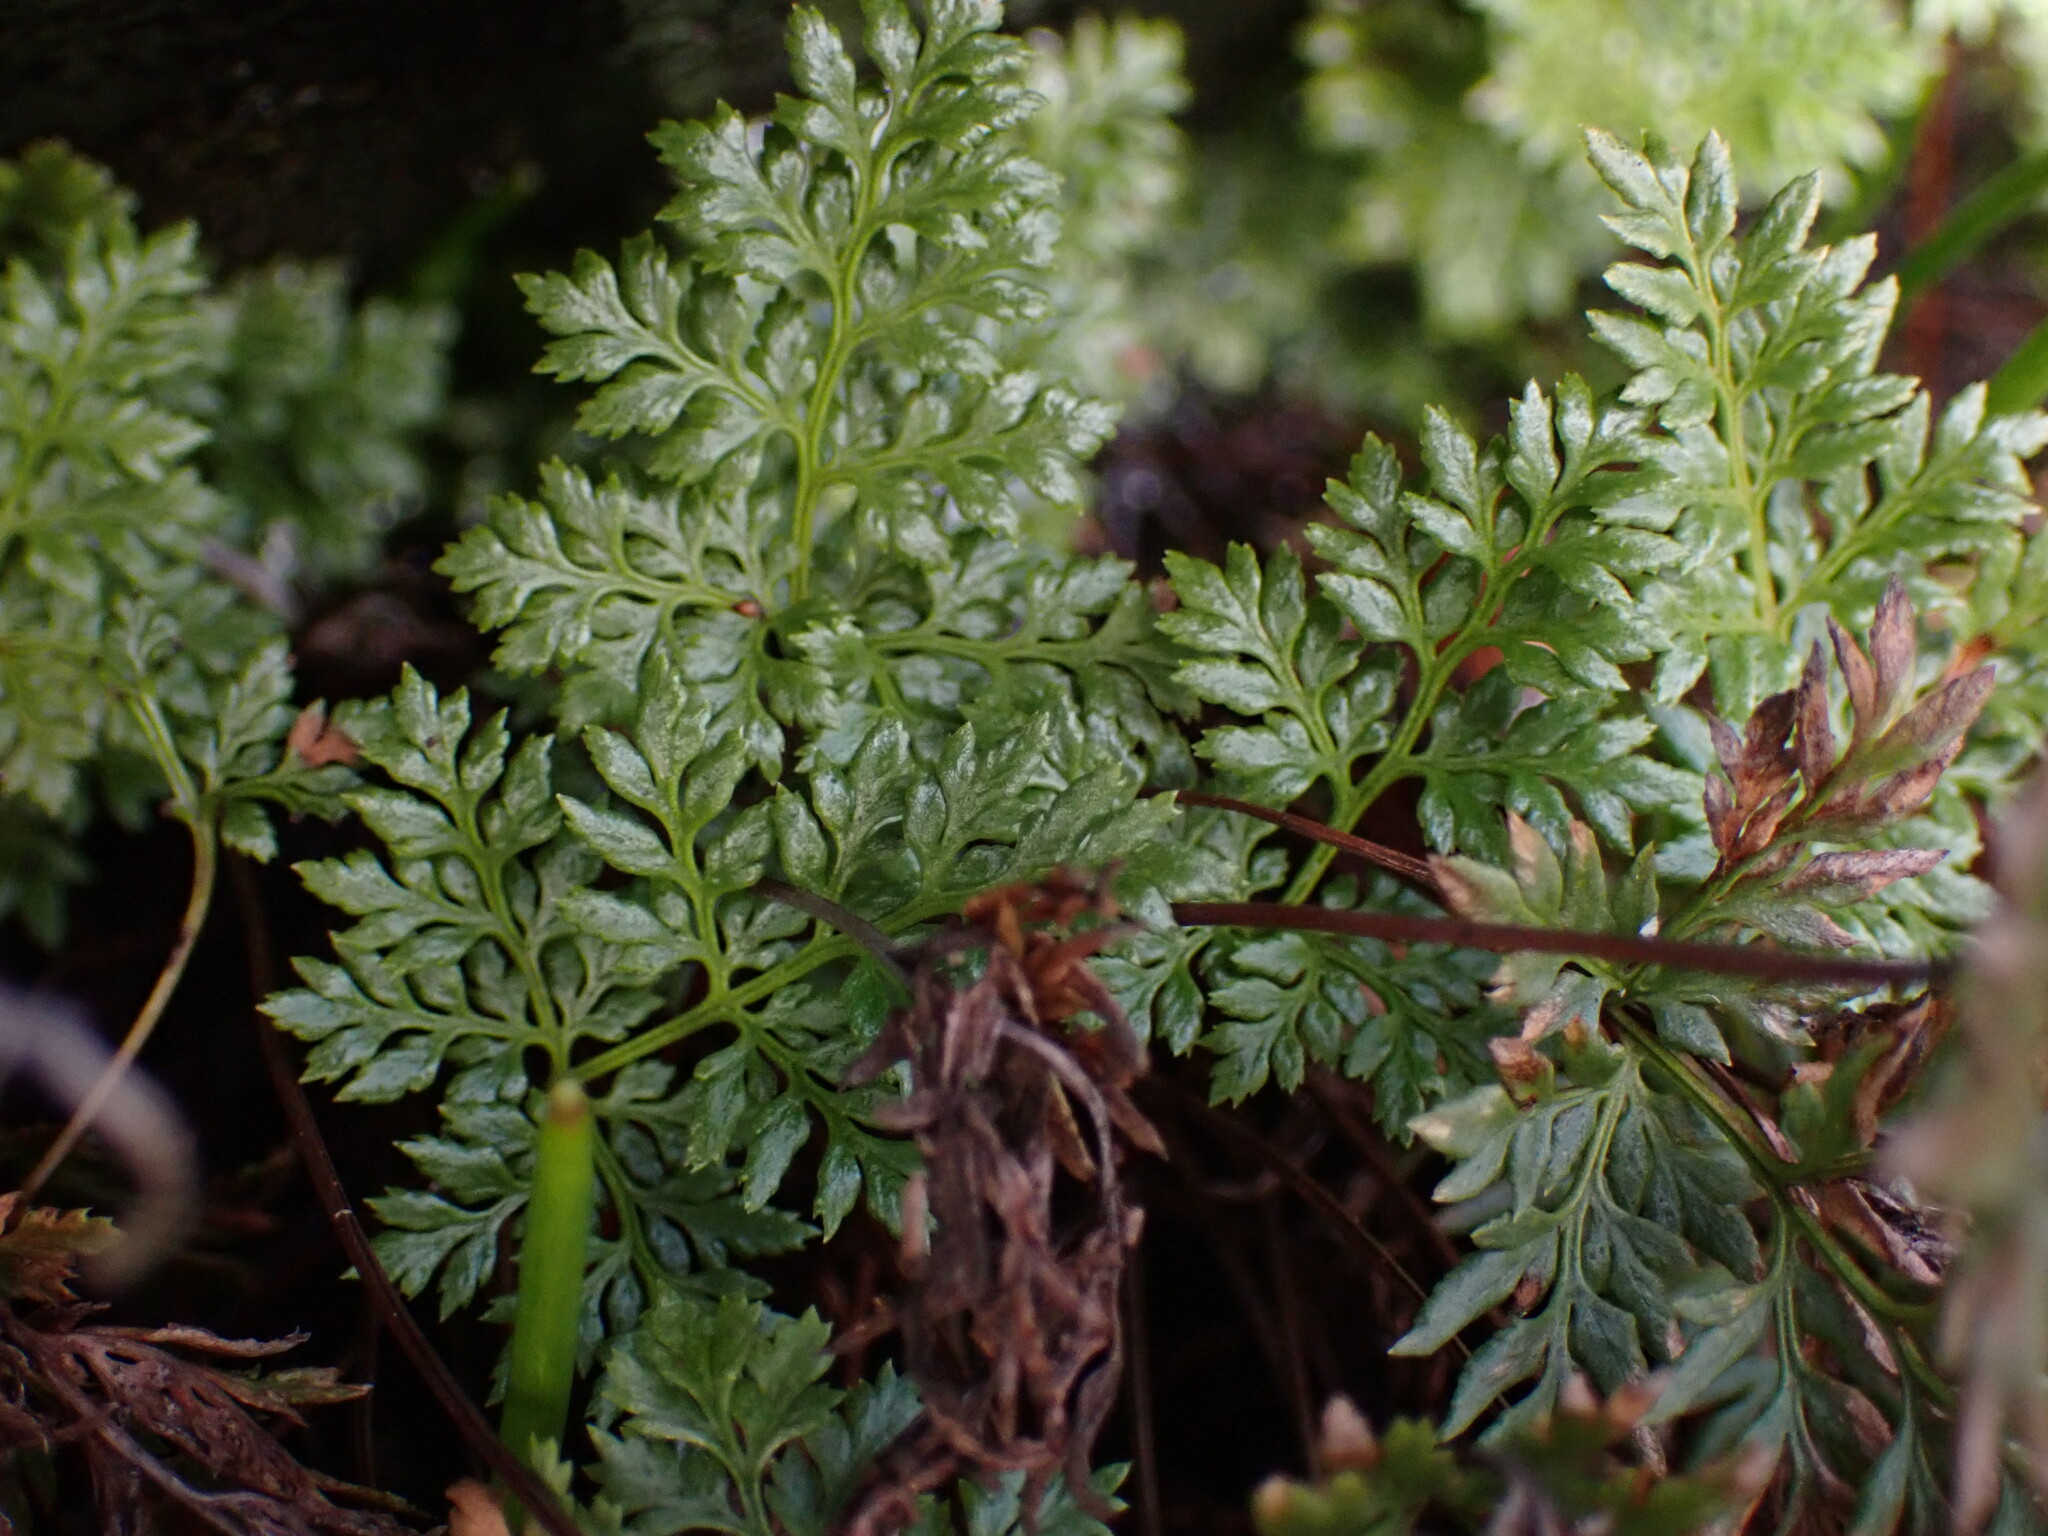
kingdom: Plantae
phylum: Tracheophyta
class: Polypodiopsida
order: Polypodiales
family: Pteridaceae
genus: Aspidotis
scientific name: Aspidotis densa
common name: Indian's dream
